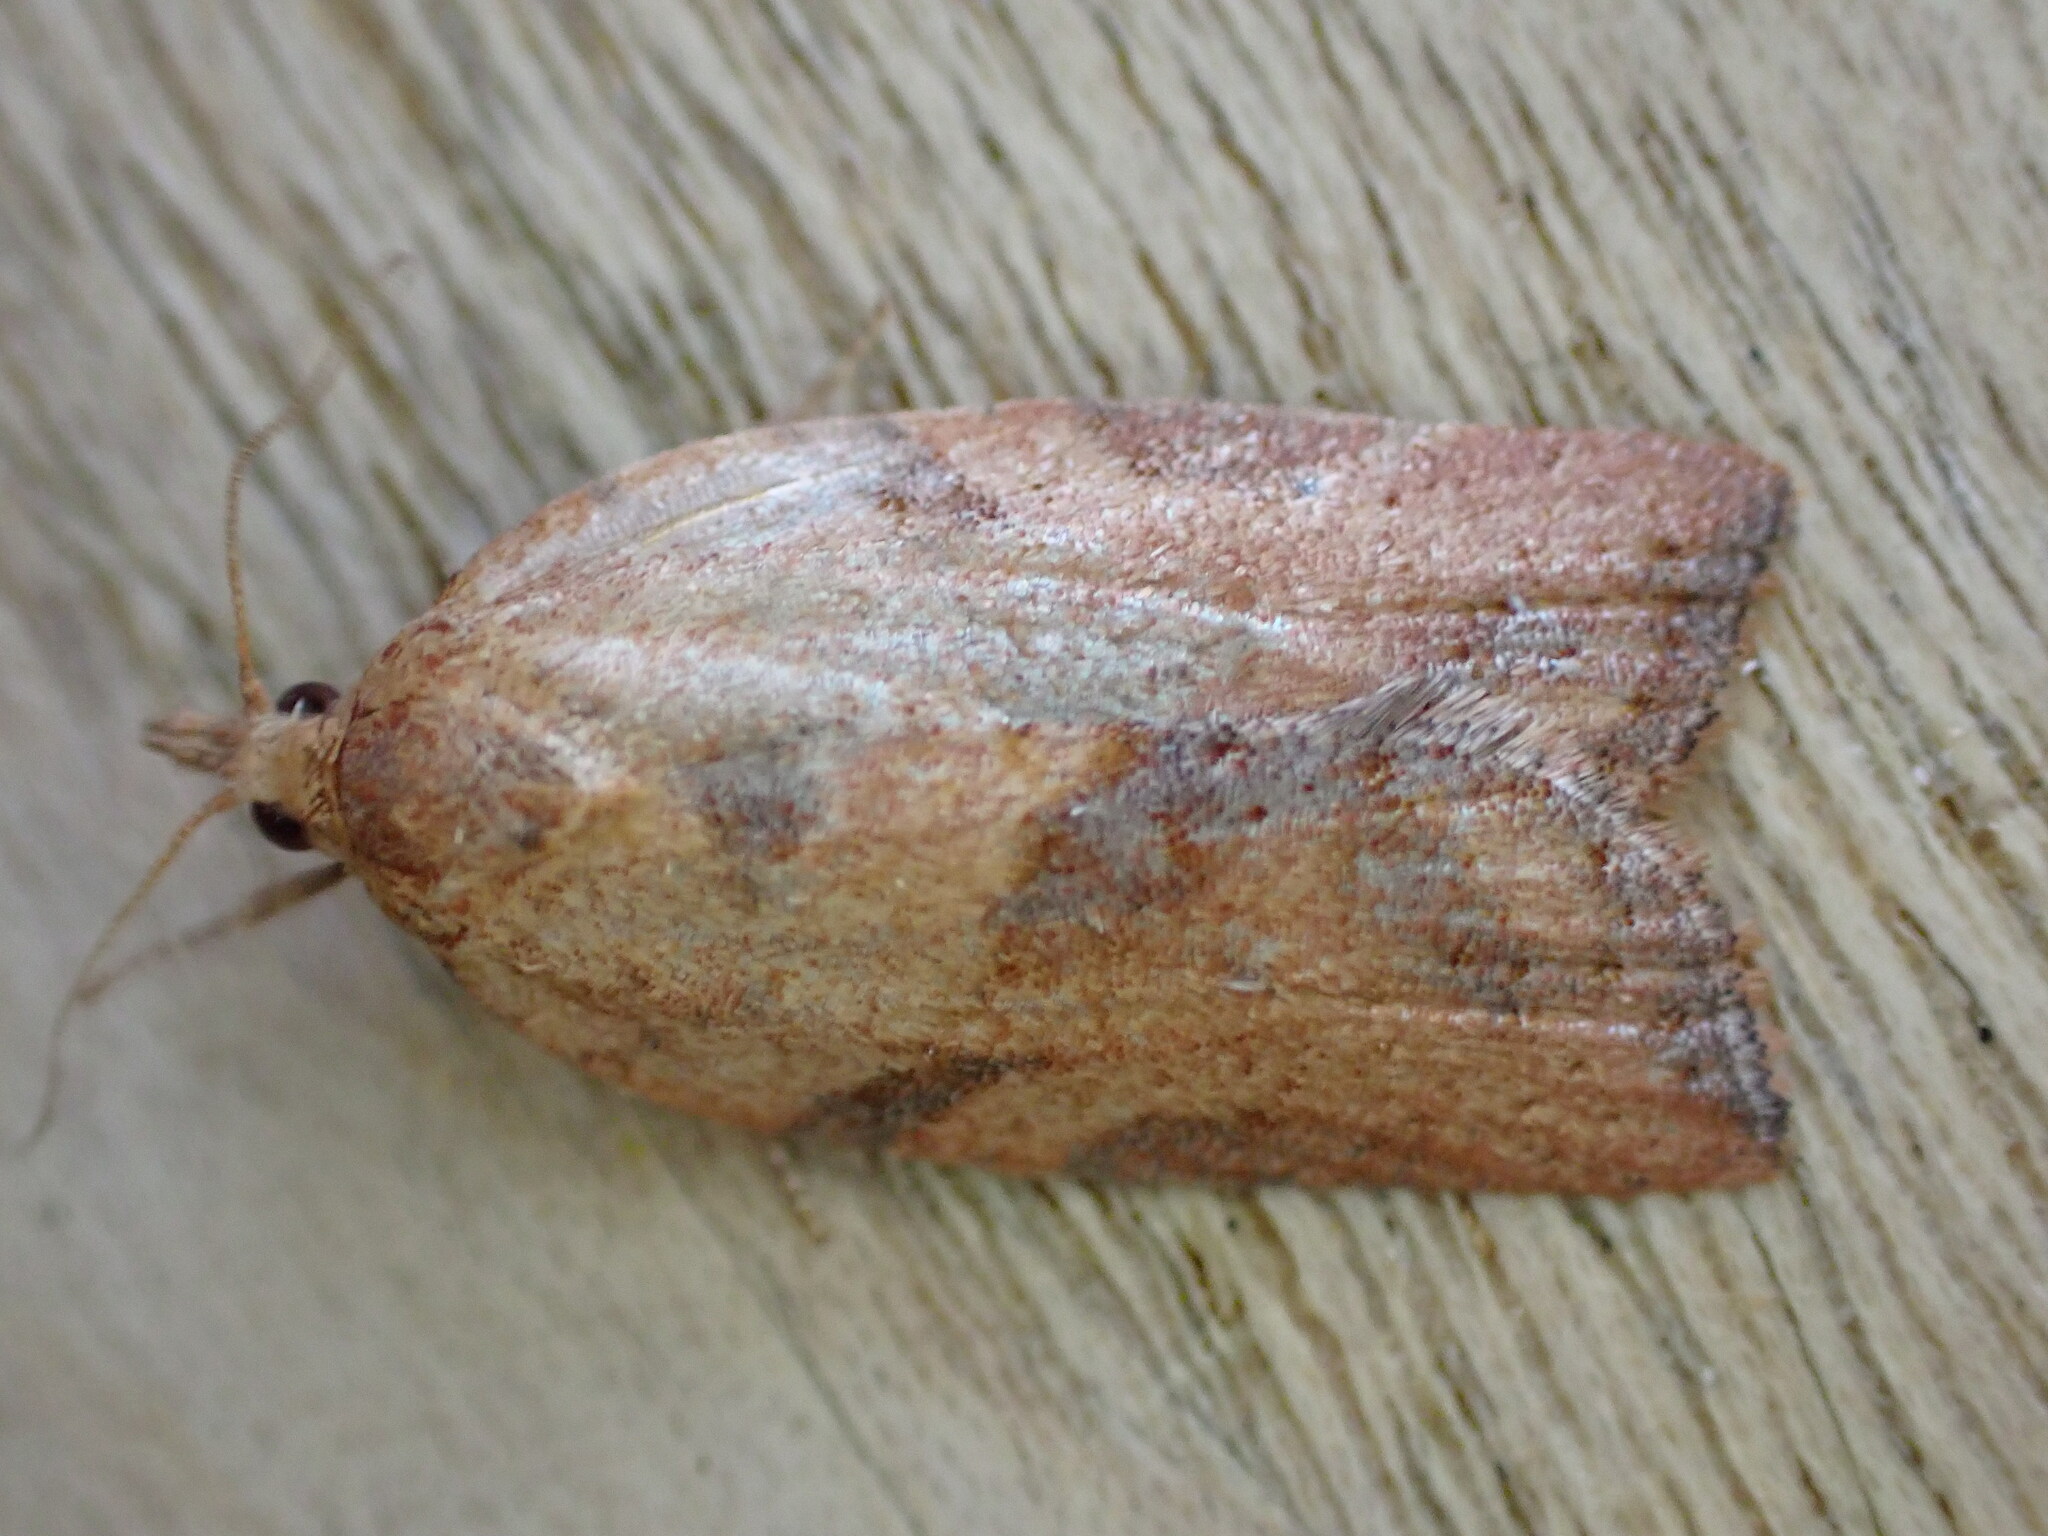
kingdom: Animalia
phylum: Arthropoda
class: Insecta
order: Lepidoptera
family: Tortricidae
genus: Epiphyas
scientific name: Epiphyas postvittana
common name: Light brown apple moth
